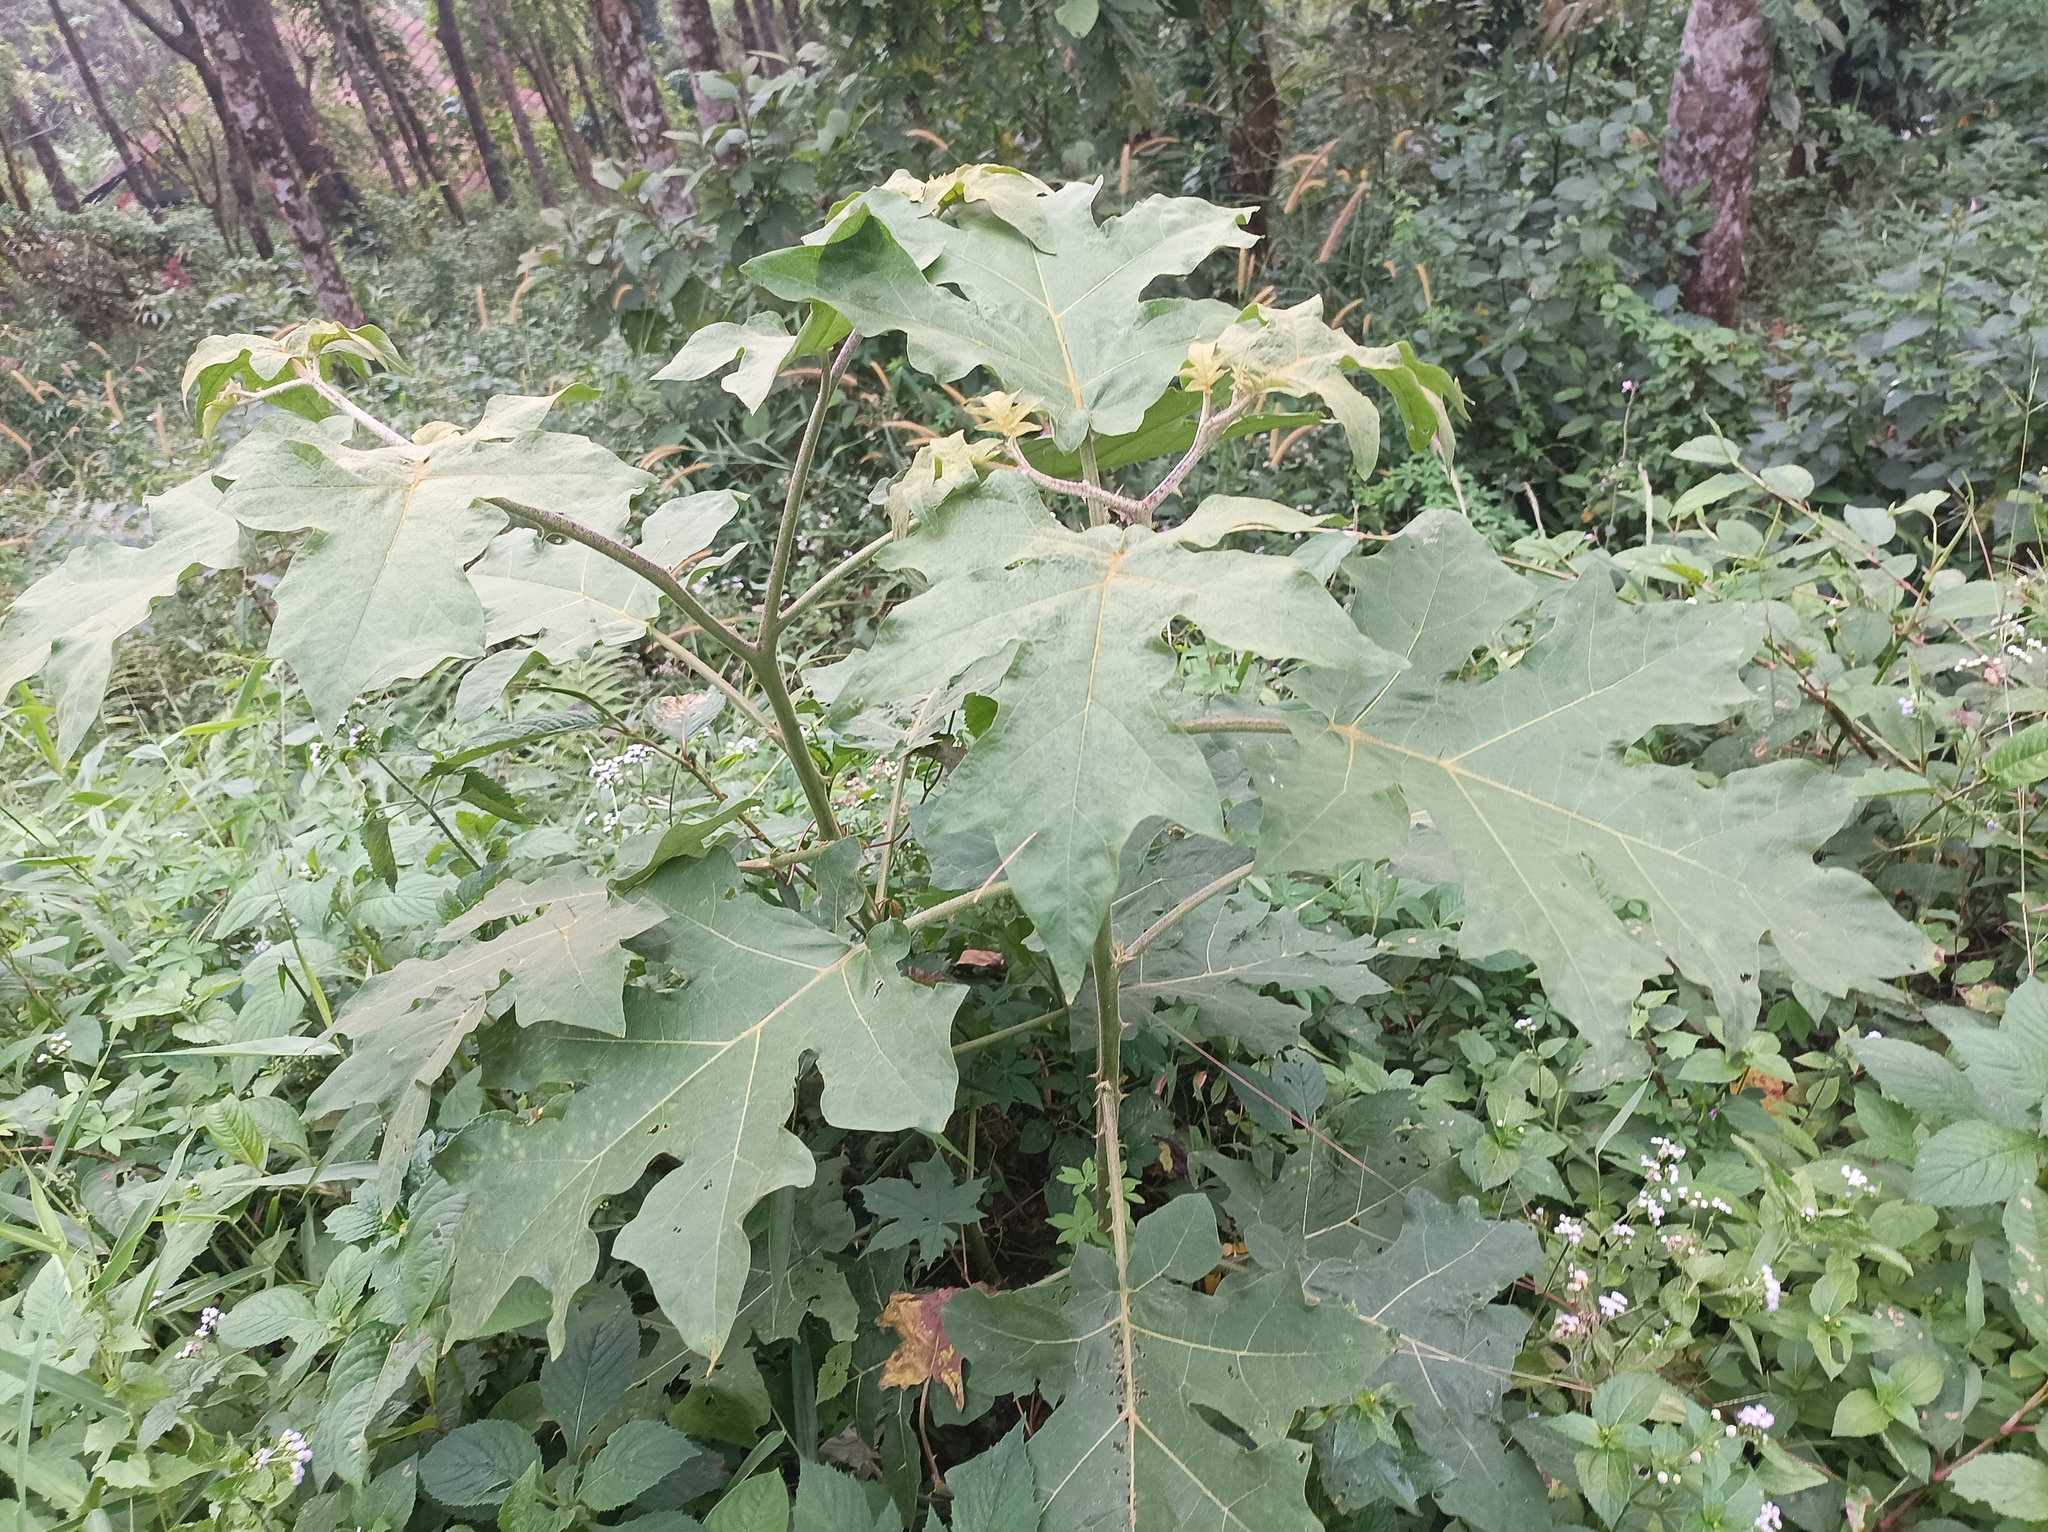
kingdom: Plantae
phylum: Tracheophyta
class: Magnoliopsida
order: Solanales
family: Solanaceae
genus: Solanum
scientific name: Solanum torvum
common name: Turkey berry
